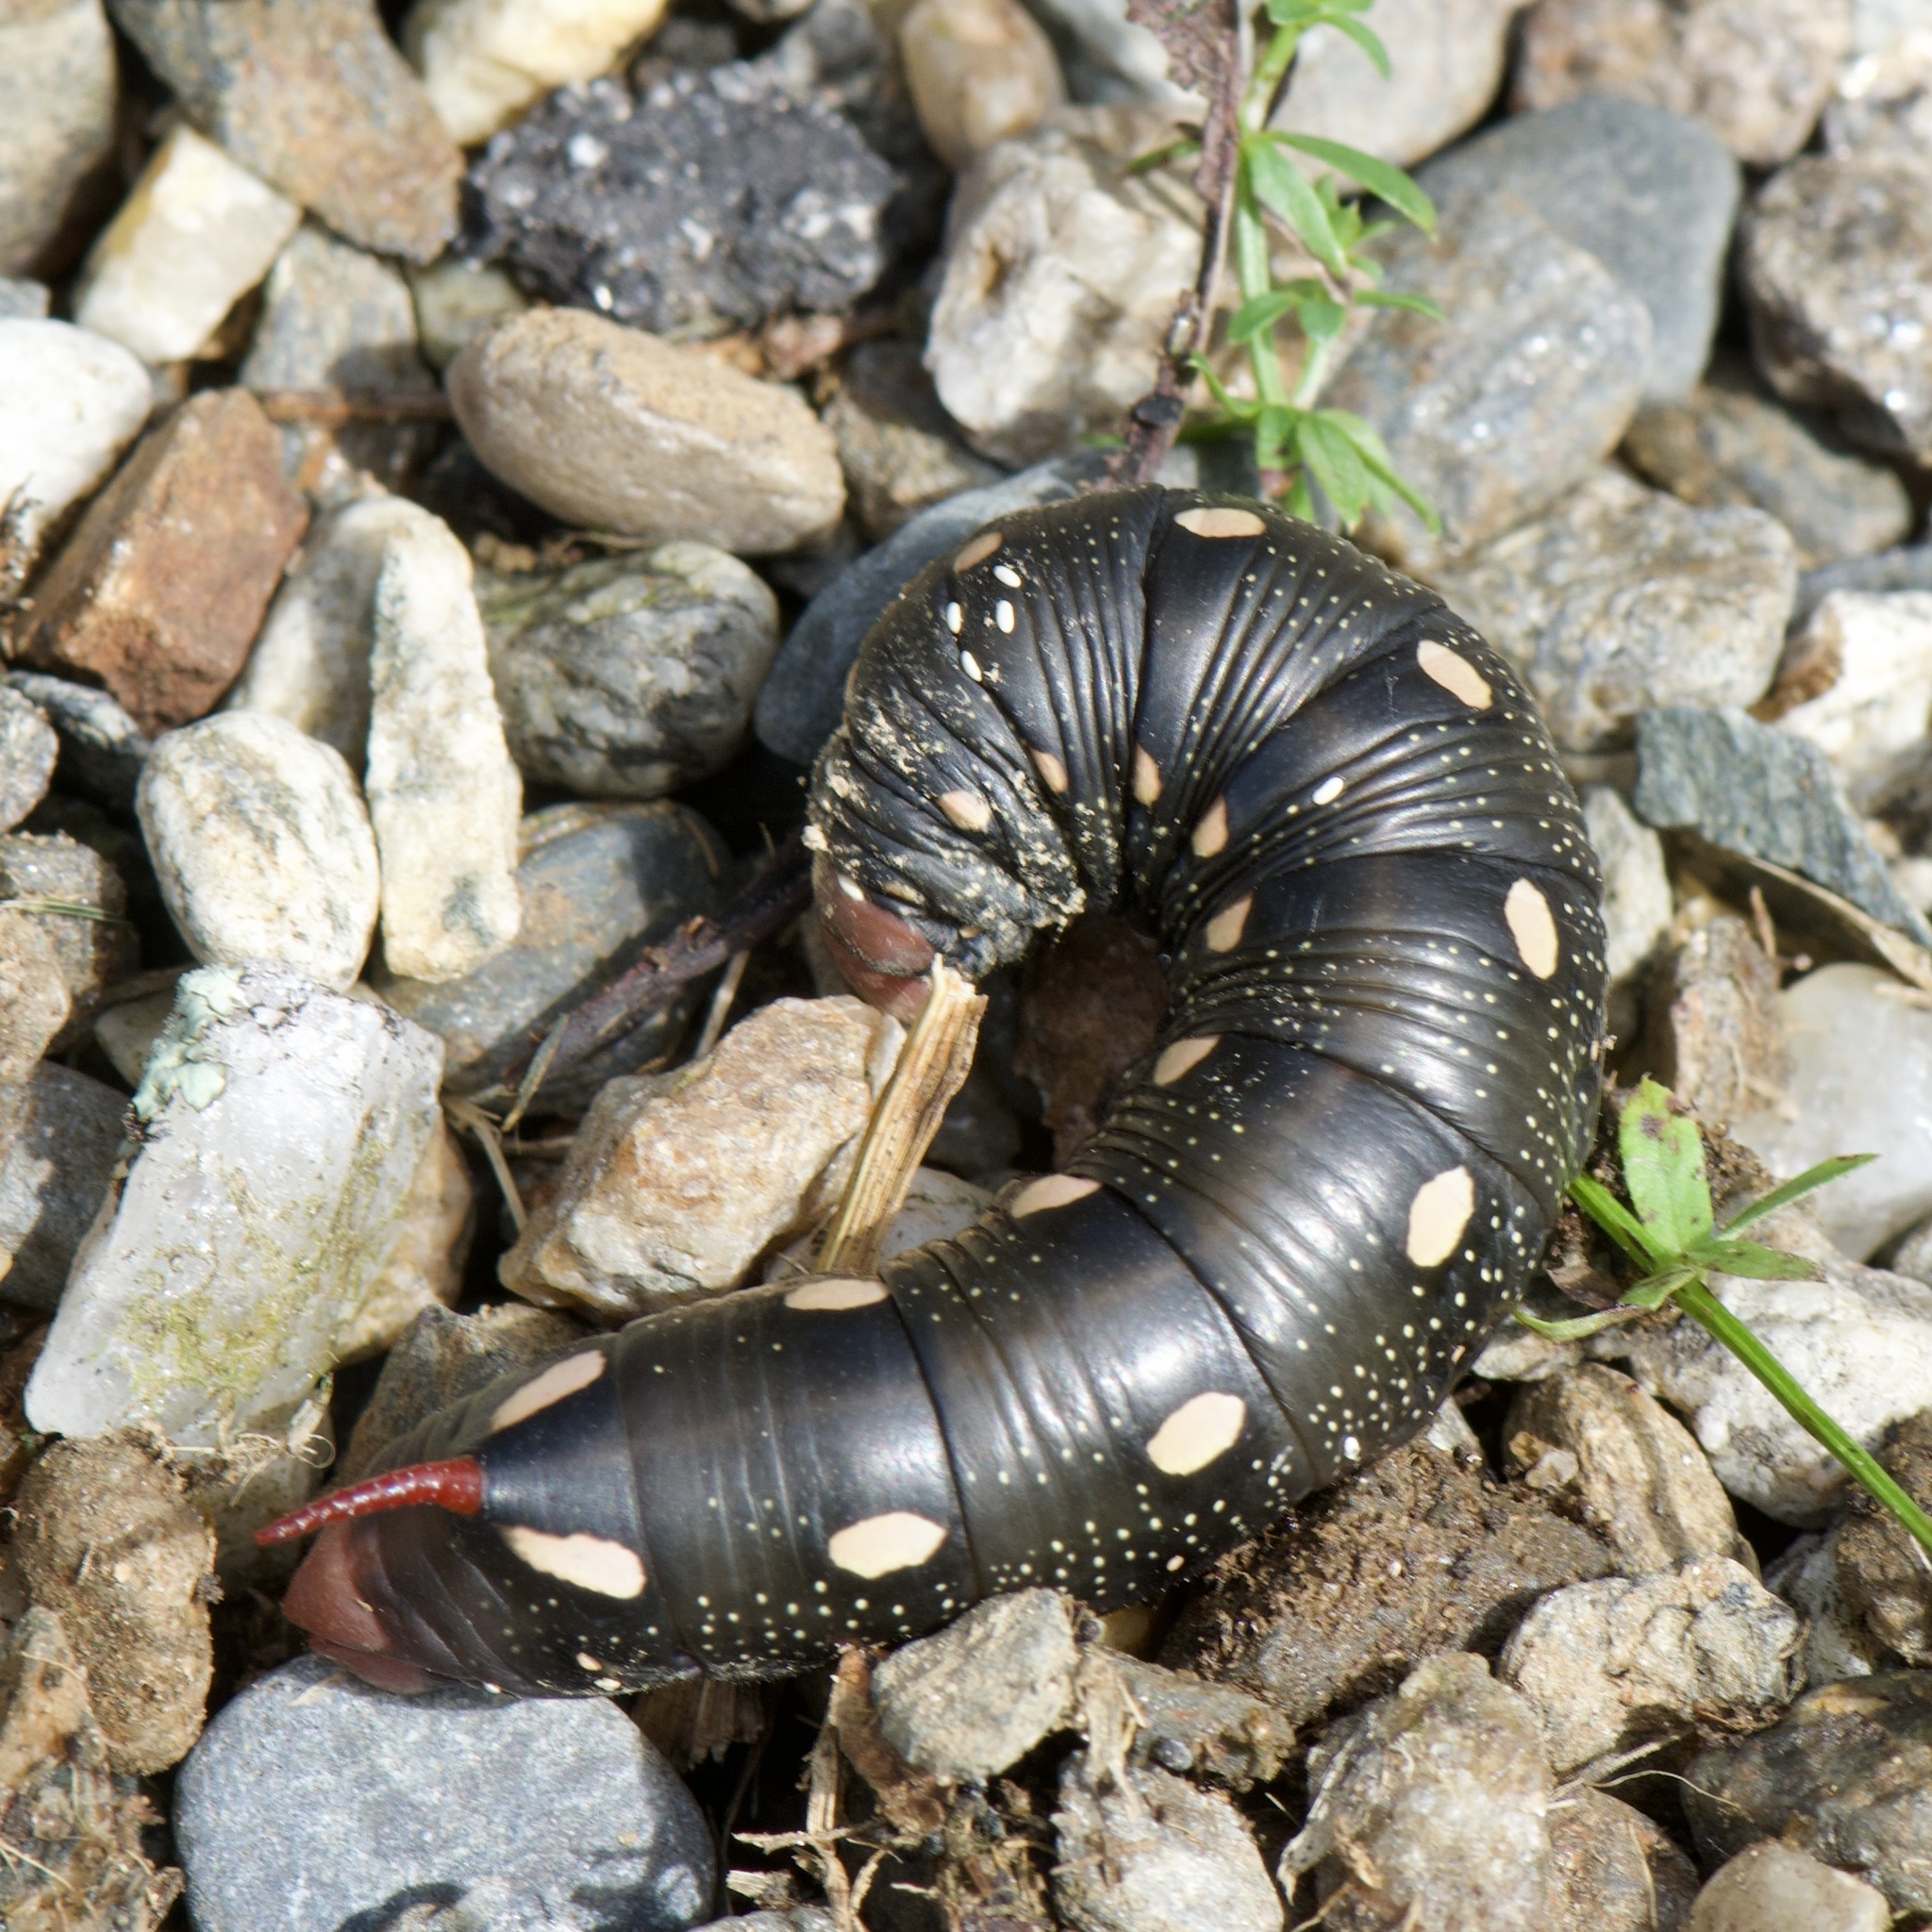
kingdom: Animalia
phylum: Arthropoda
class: Insecta
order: Lepidoptera
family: Sphingidae
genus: Hyles
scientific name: Hyles gallii
